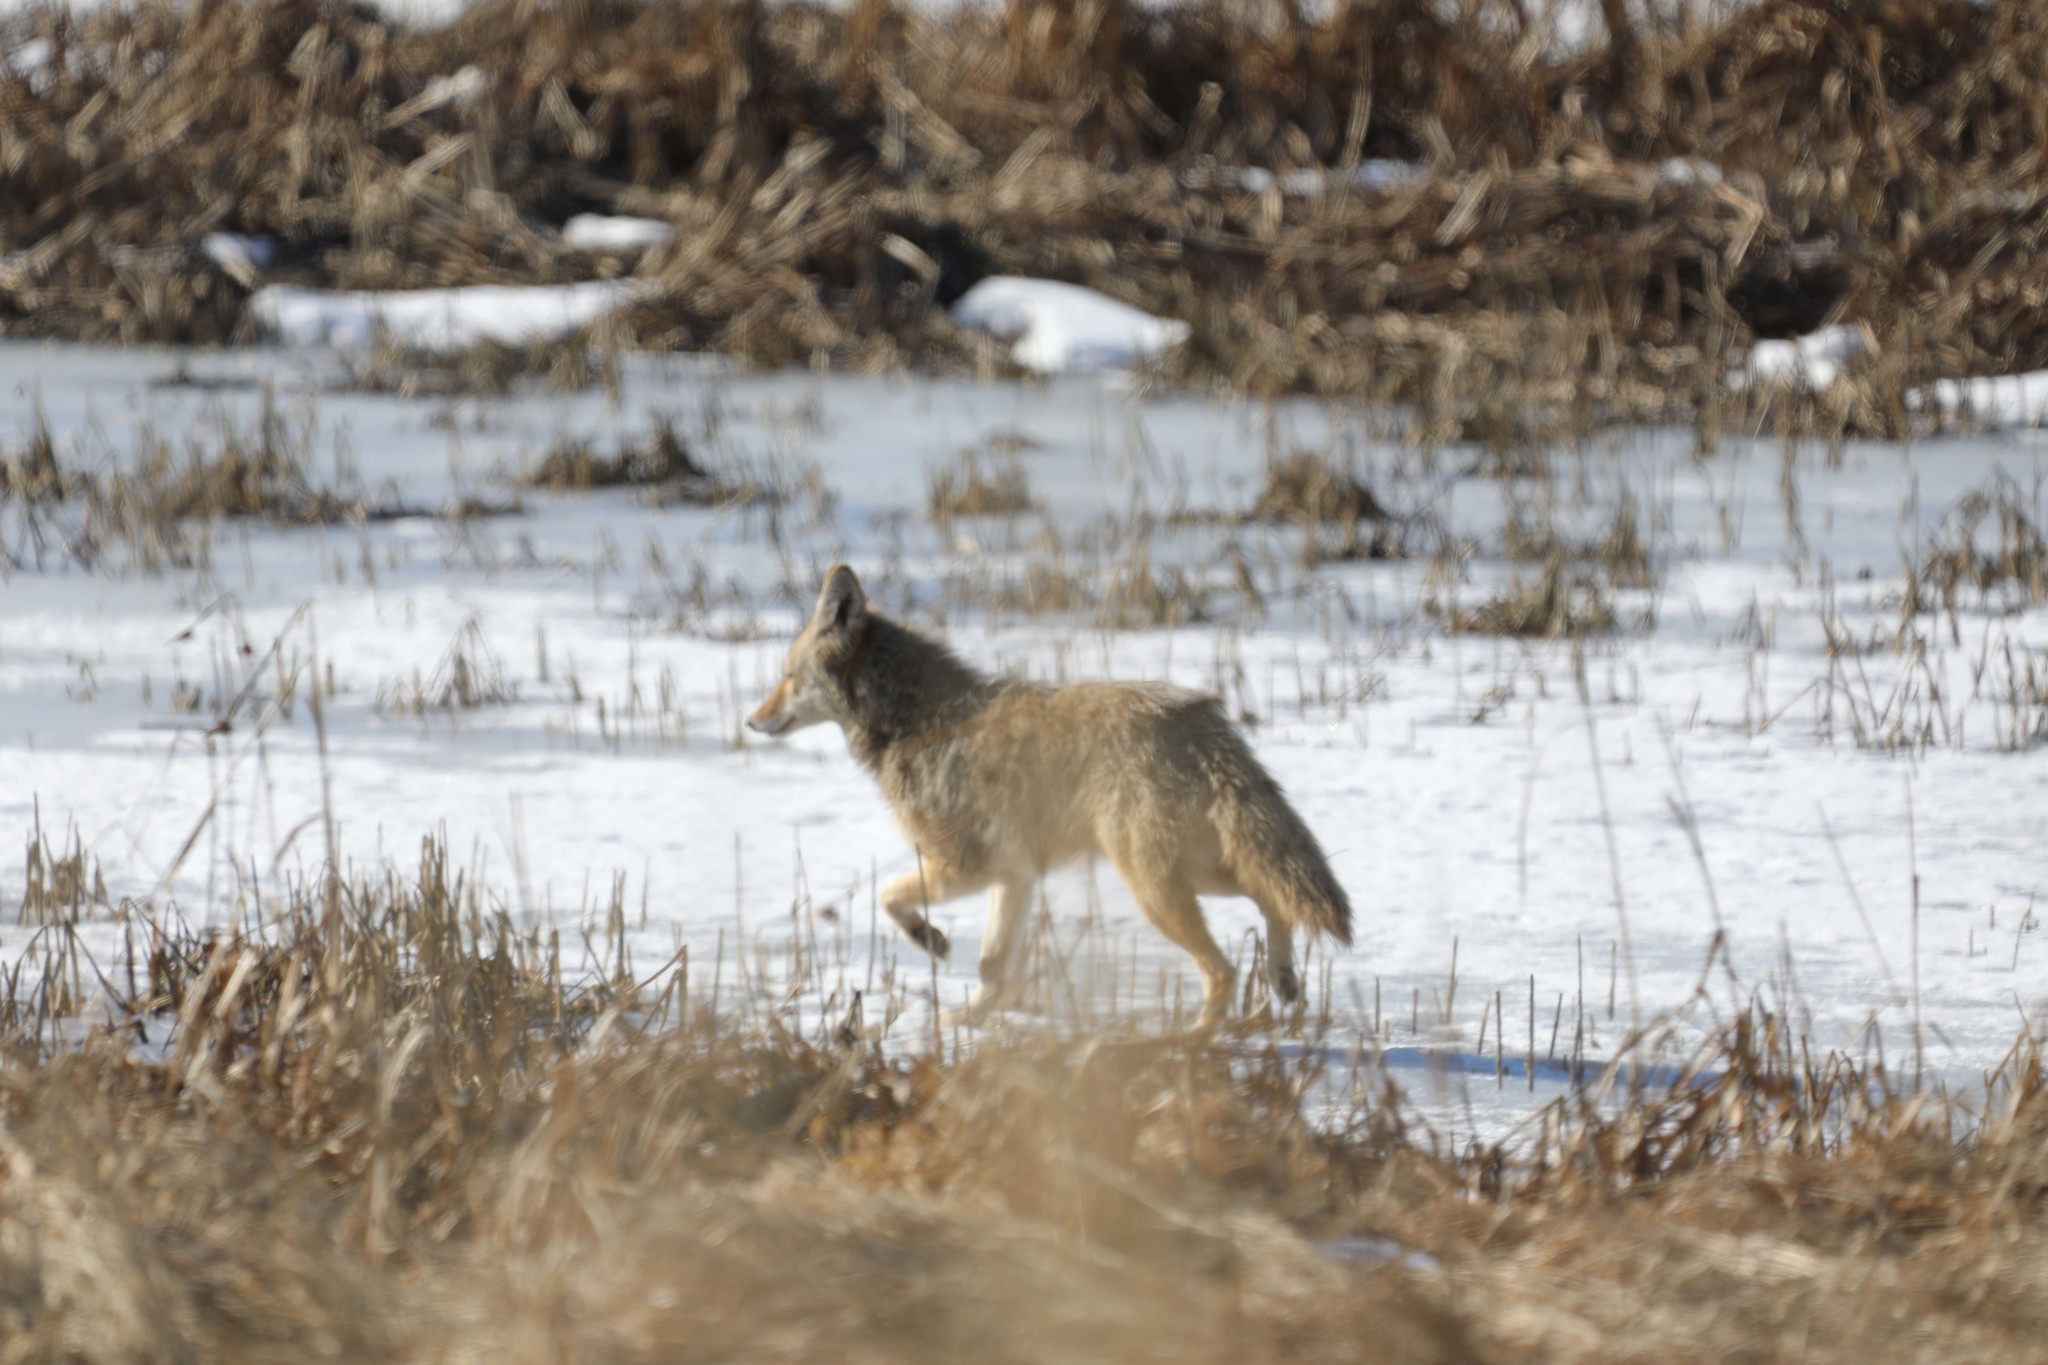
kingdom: Animalia
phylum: Chordata
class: Mammalia
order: Carnivora
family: Canidae
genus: Canis
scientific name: Canis latrans
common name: Coyote
